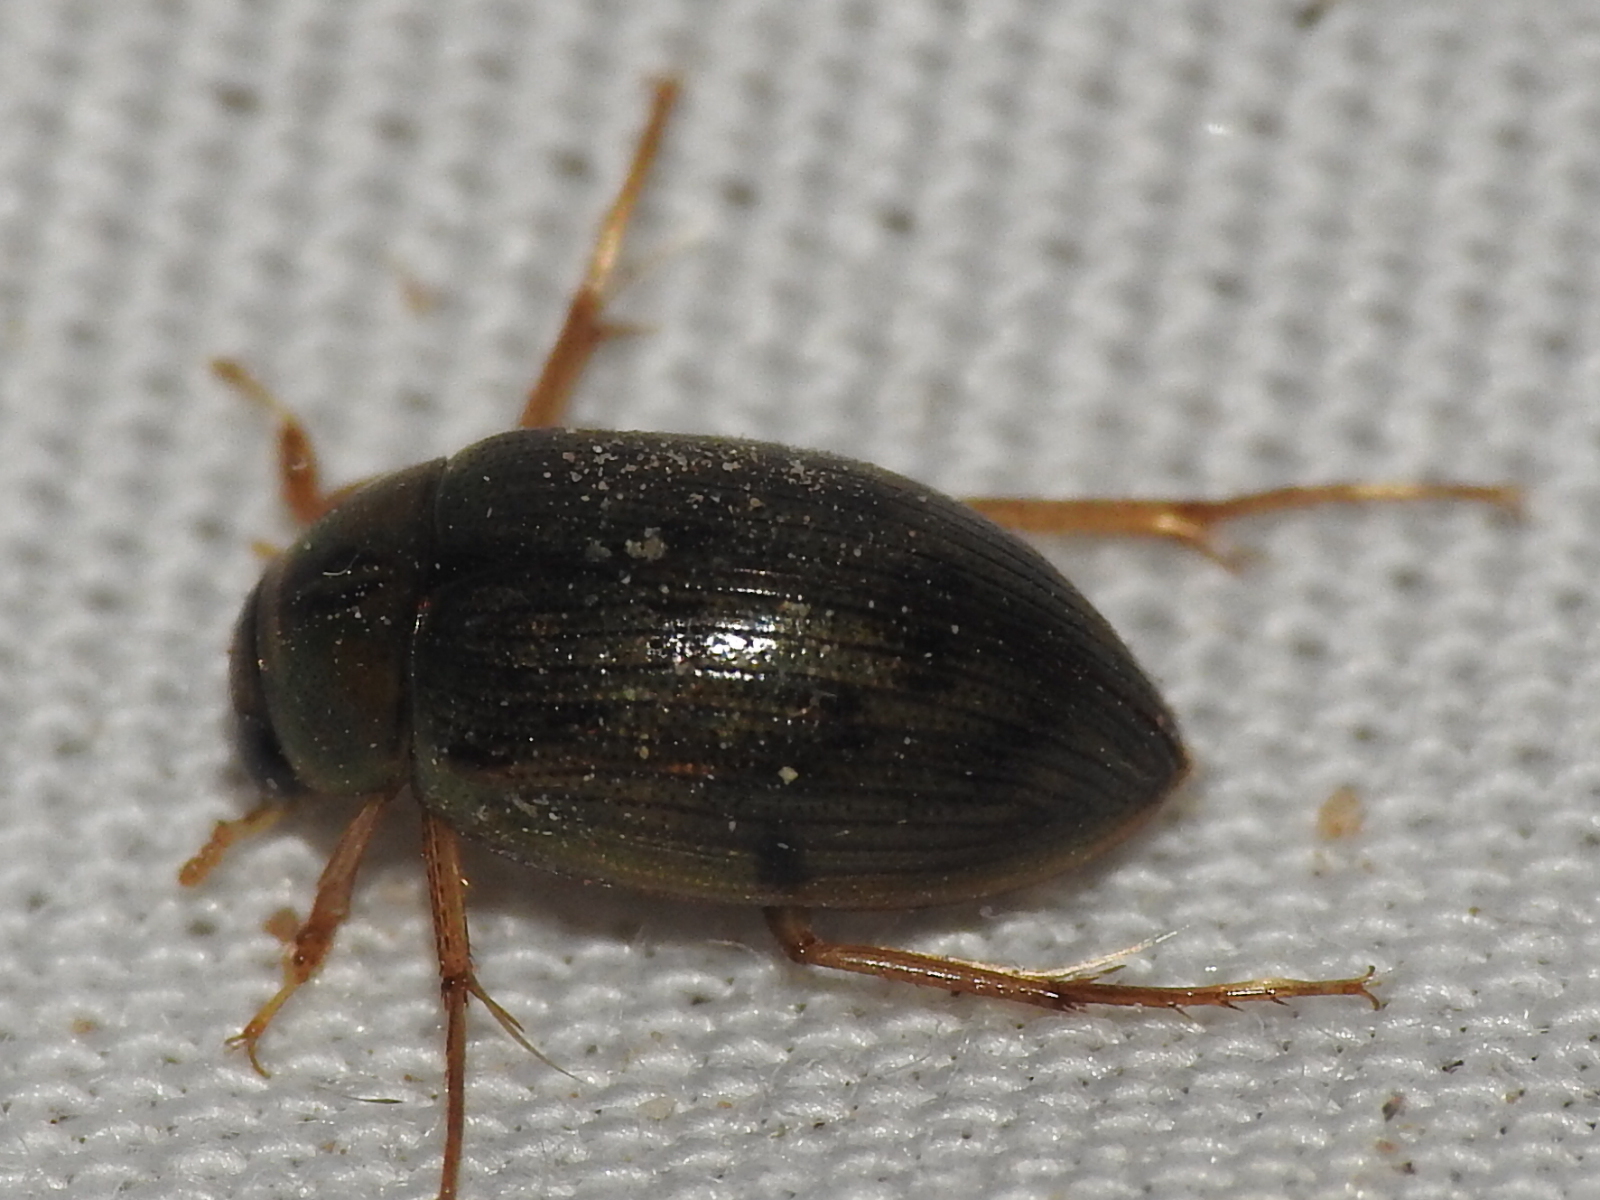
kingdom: Animalia
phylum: Arthropoda
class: Insecta
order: Coleoptera
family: Hydrophilidae
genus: Berosus
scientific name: Berosus
